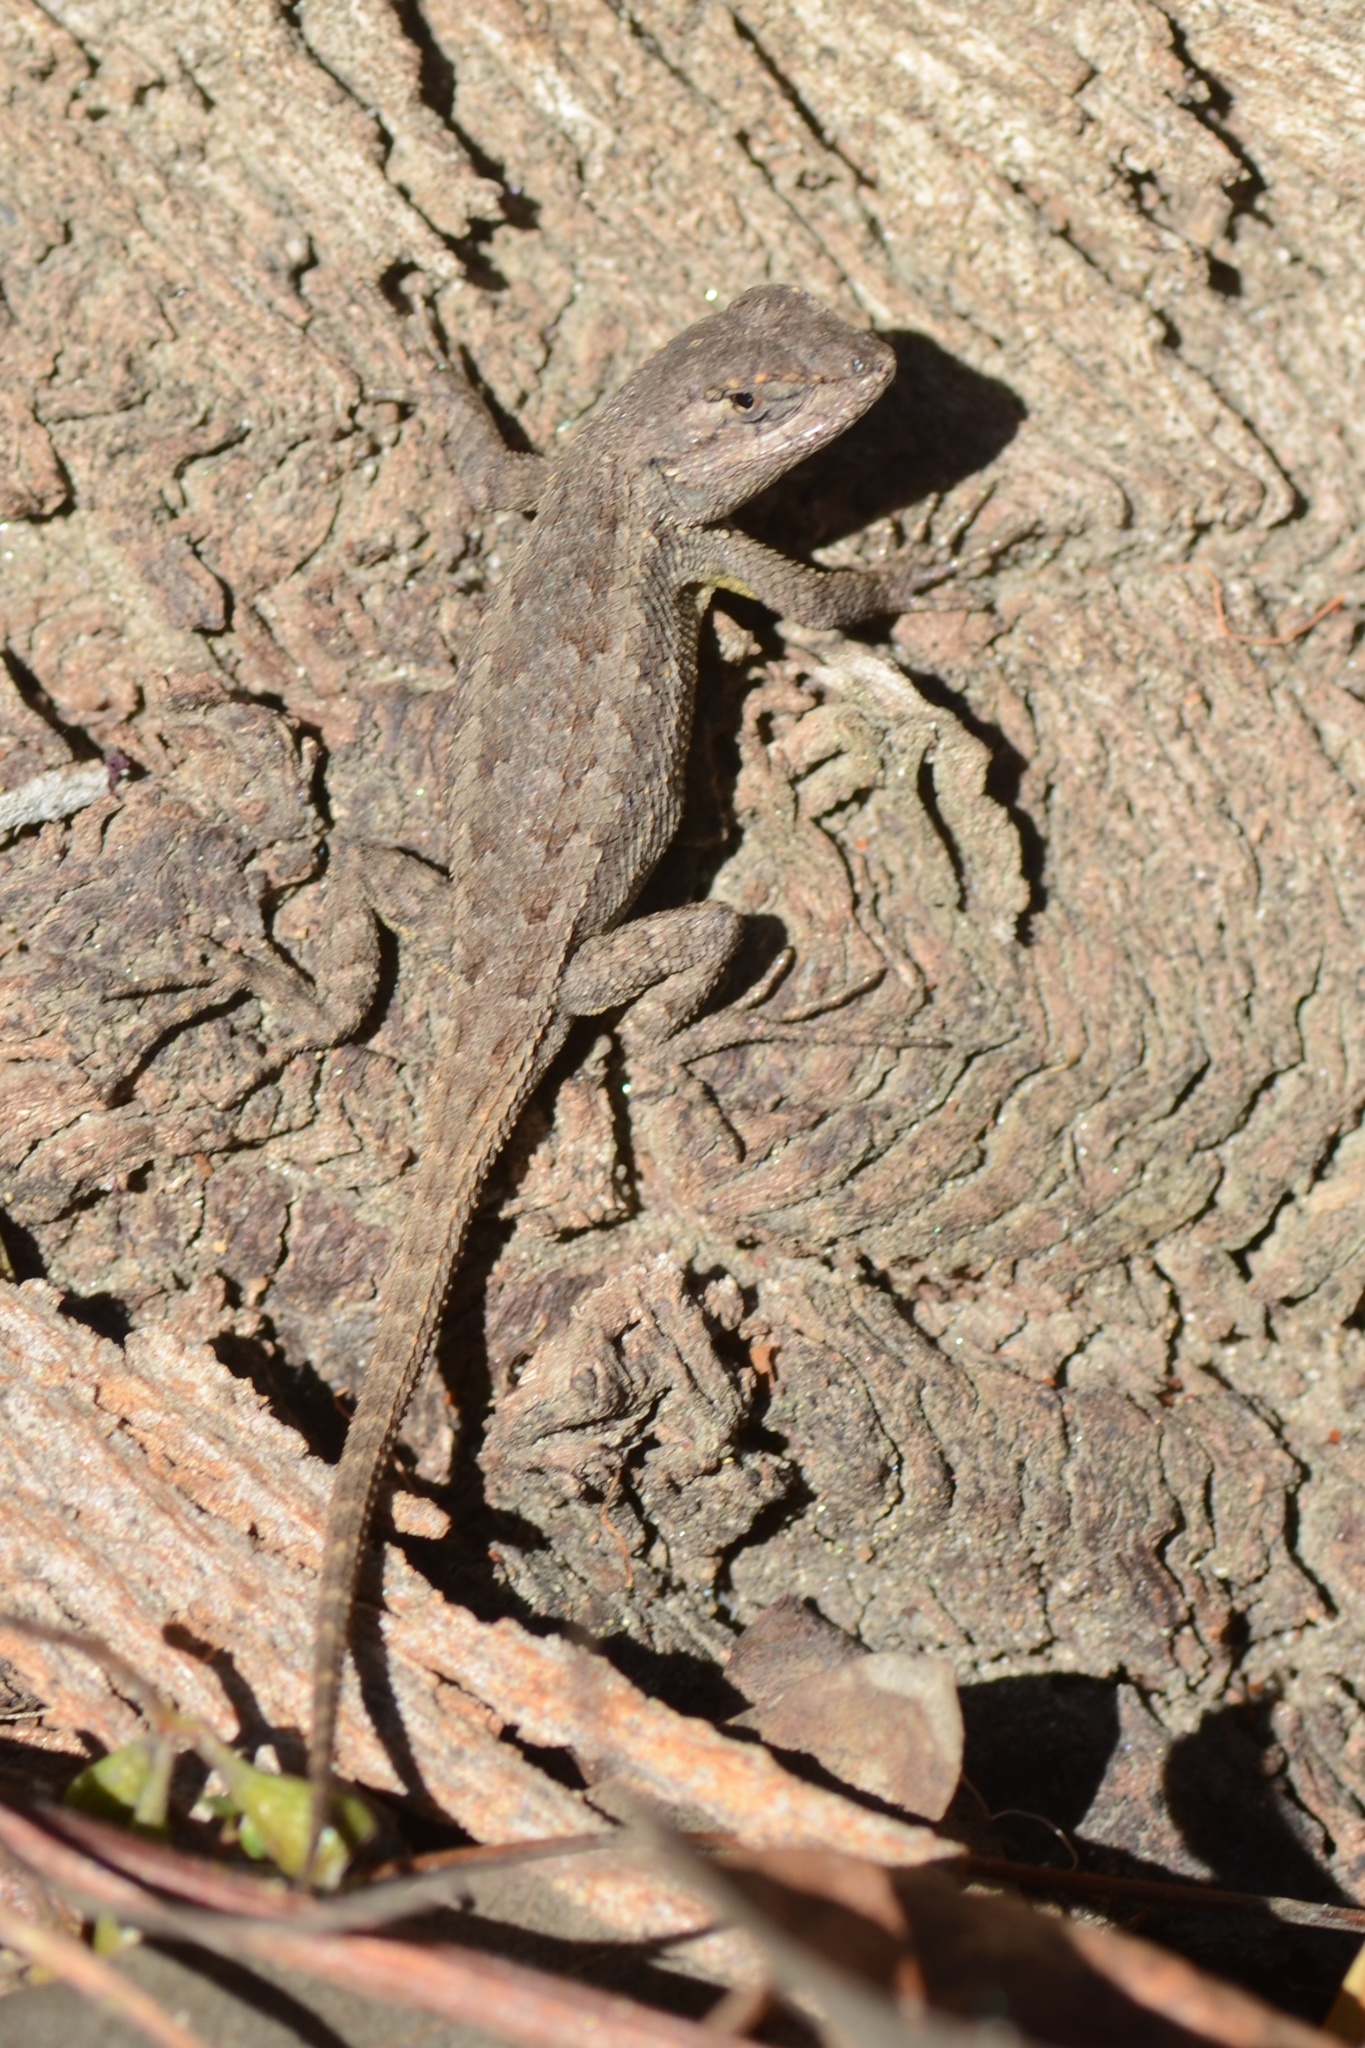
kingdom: Animalia
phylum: Chordata
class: Squamata
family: Phrynosomatidae
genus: Sceloporus
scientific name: Sceloporus occidentalis
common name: Western fence lizard
